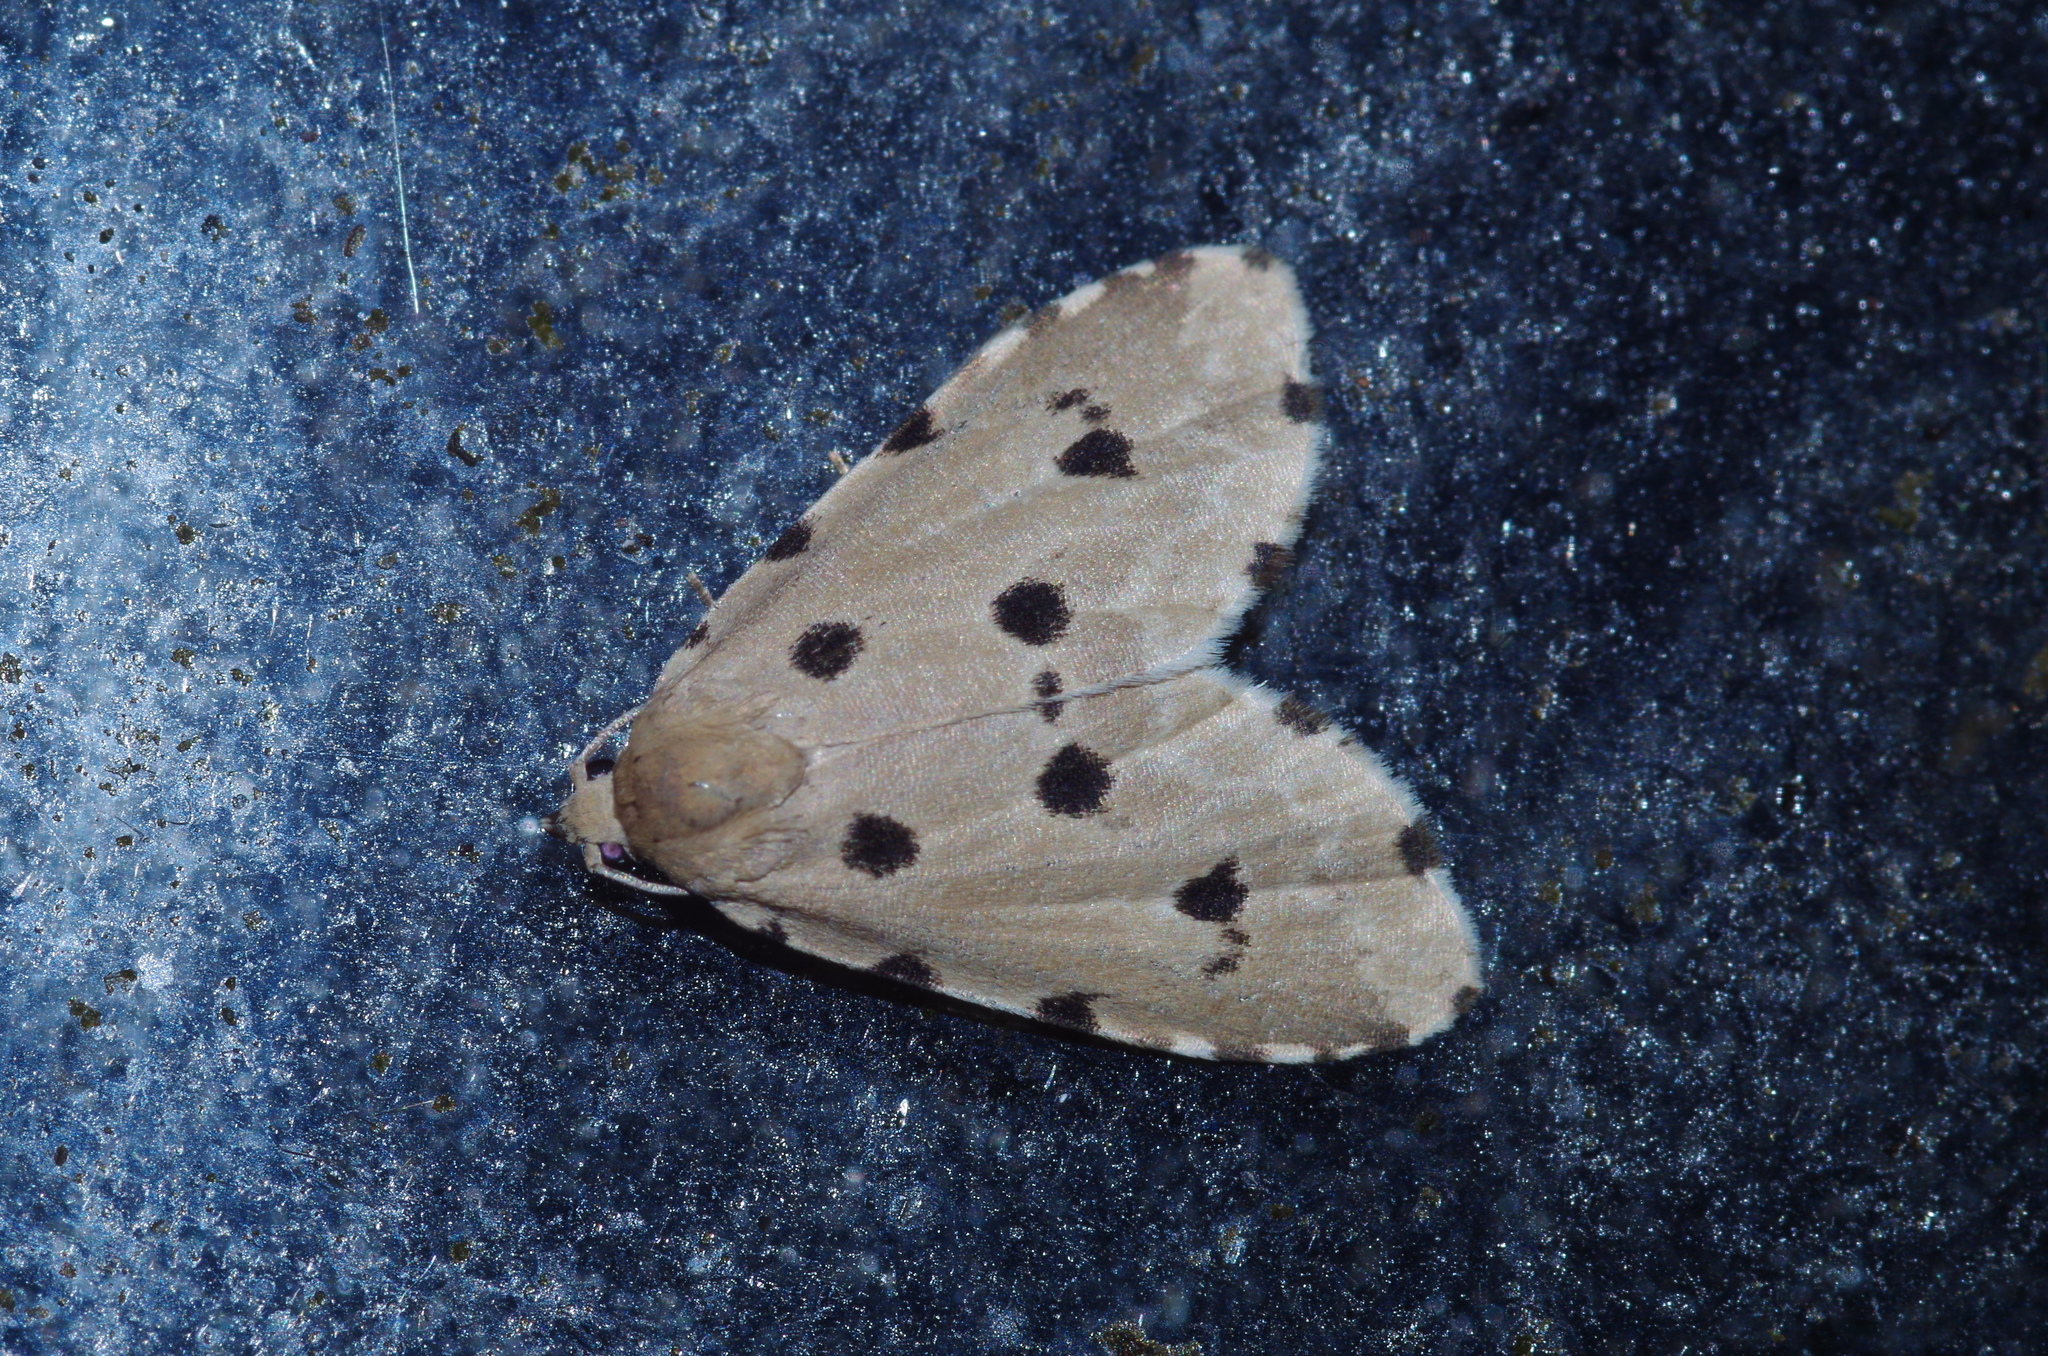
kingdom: Animalia
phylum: Arthropoda
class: Insecta
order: Lepidoptera
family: Noctuidae
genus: Metaemene
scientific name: Metaemene atrigutta
